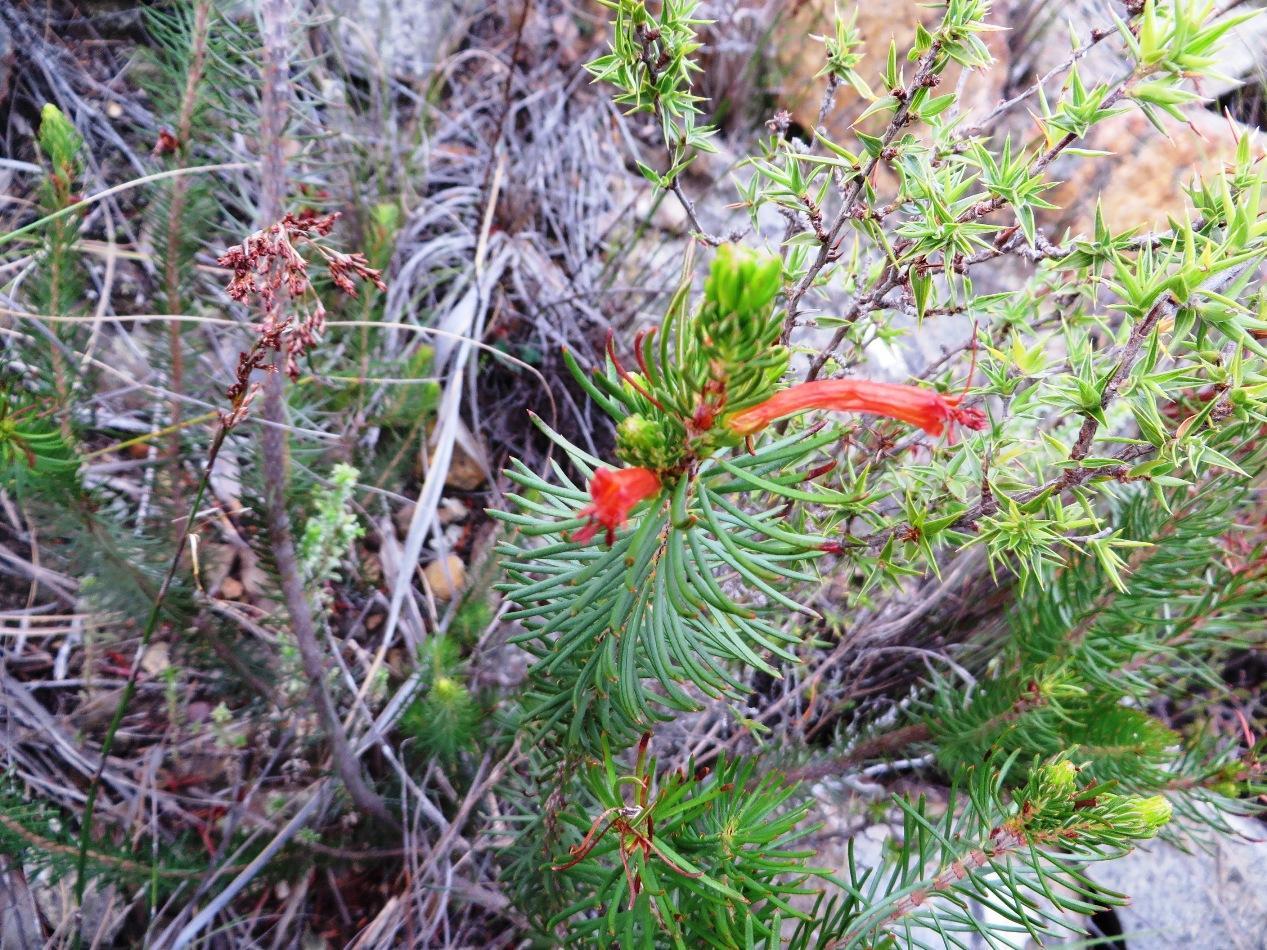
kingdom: Plantae
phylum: Tracheophyta
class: Magnoliopsida
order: Ericales
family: Ericaceae
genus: Erica
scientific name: Erica grandiflora
